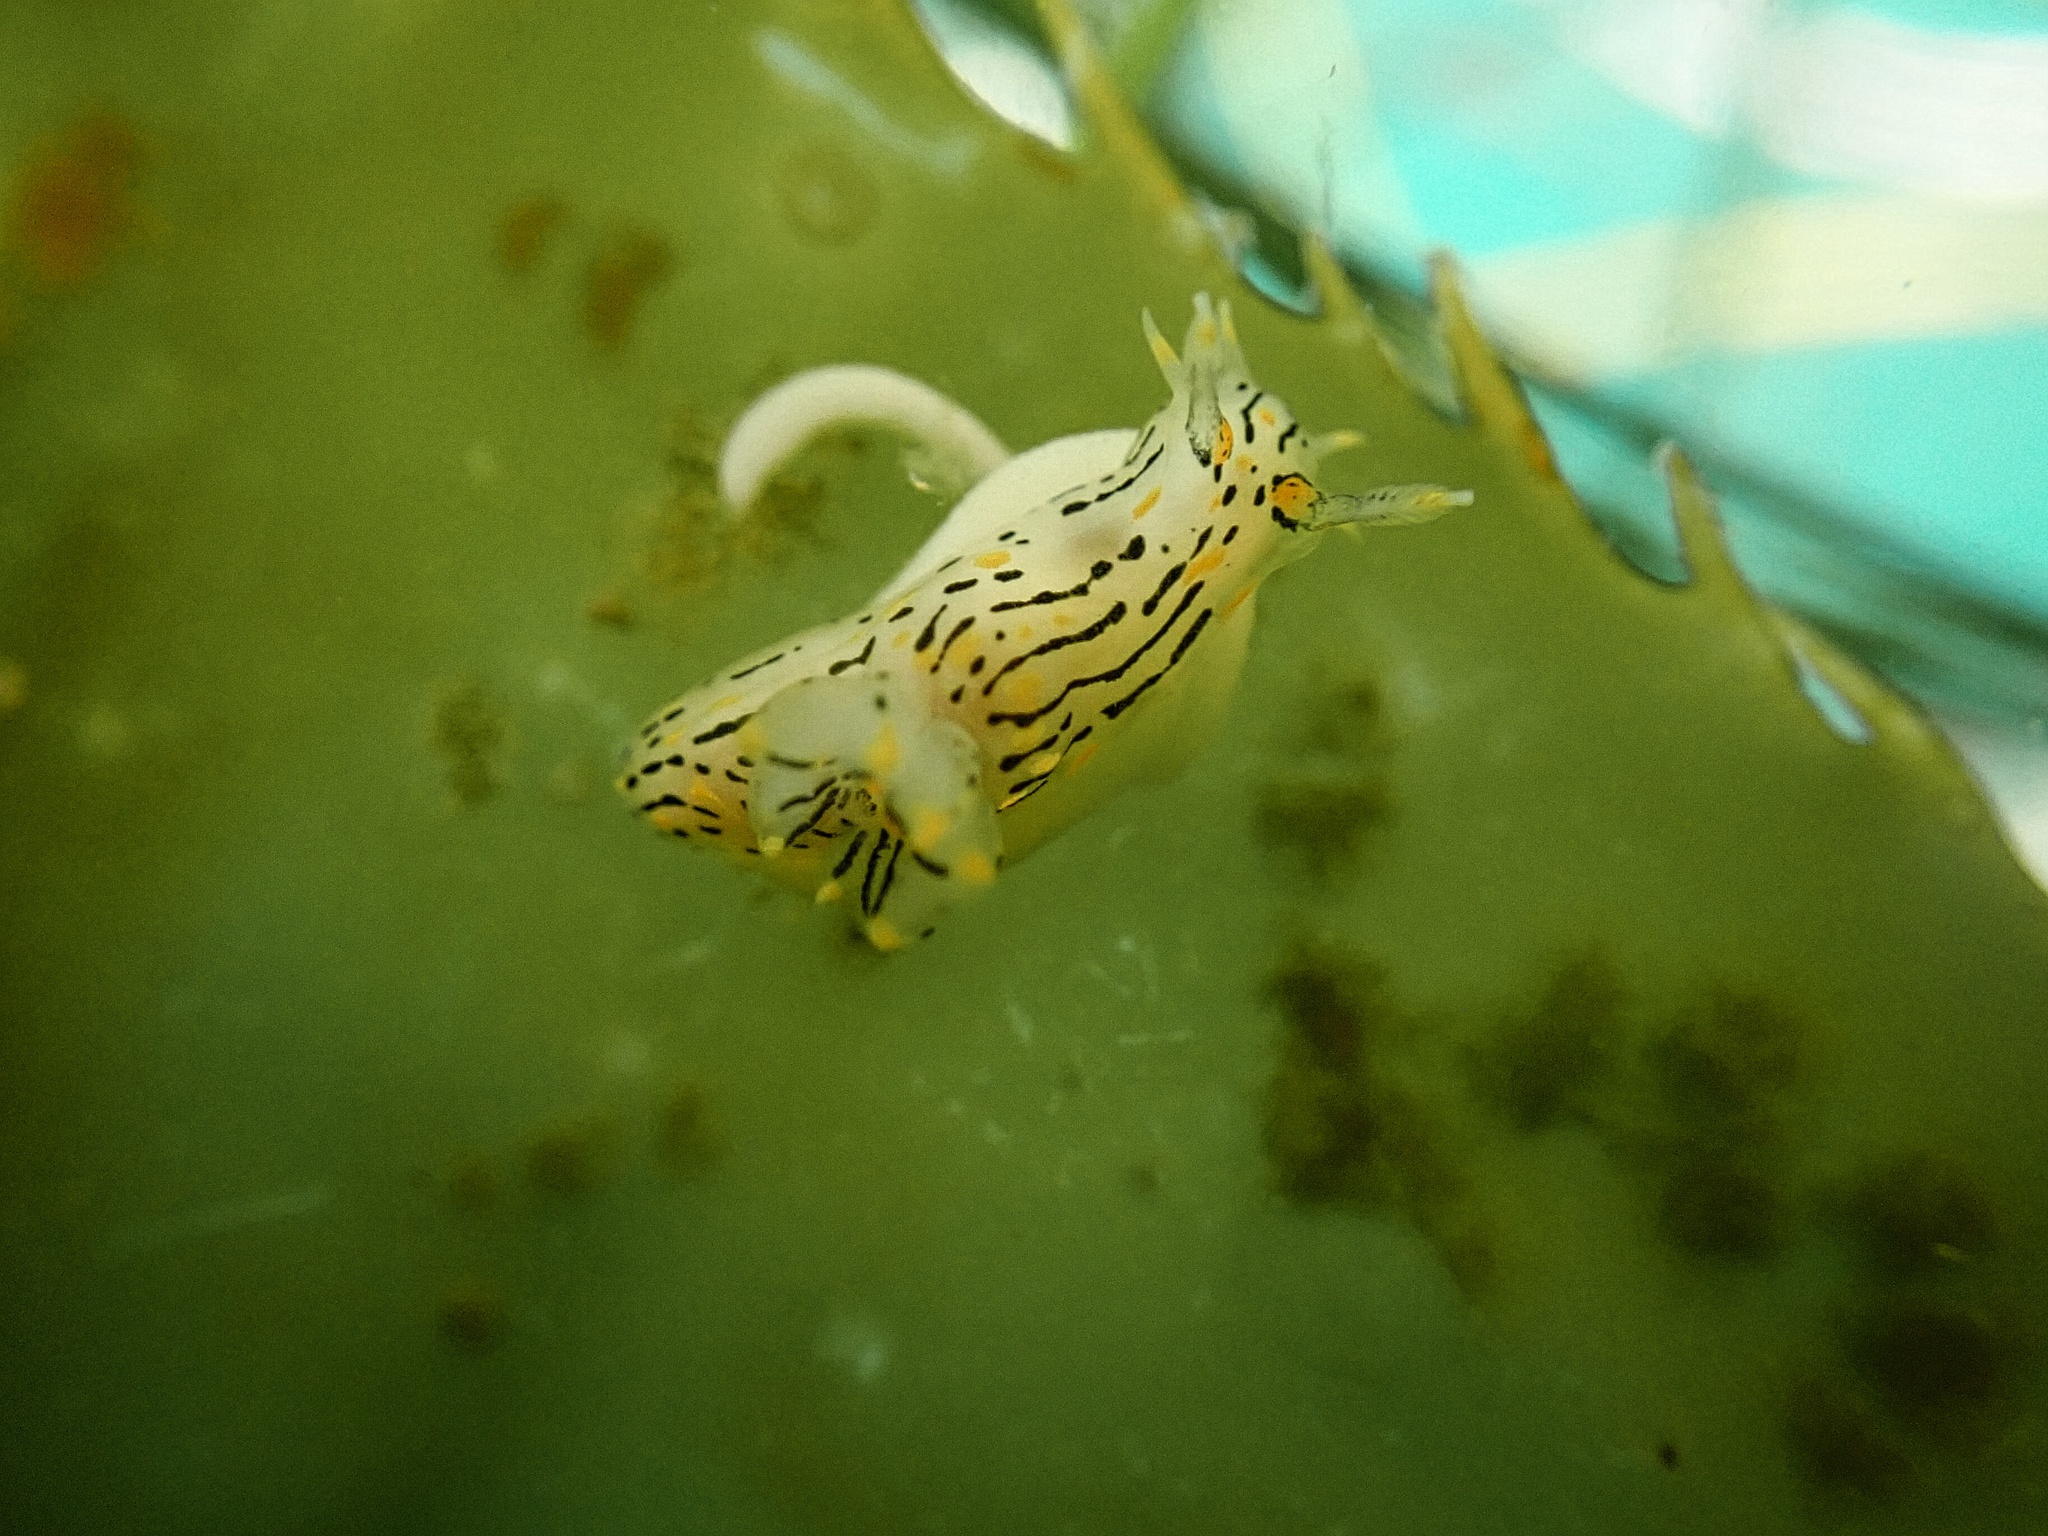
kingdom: Animalia
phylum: Mollusca
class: Gastropoda
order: Nudibranchia
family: Polyceridae
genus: Polycera
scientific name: Polycera atra
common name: Orange-spike polycera
